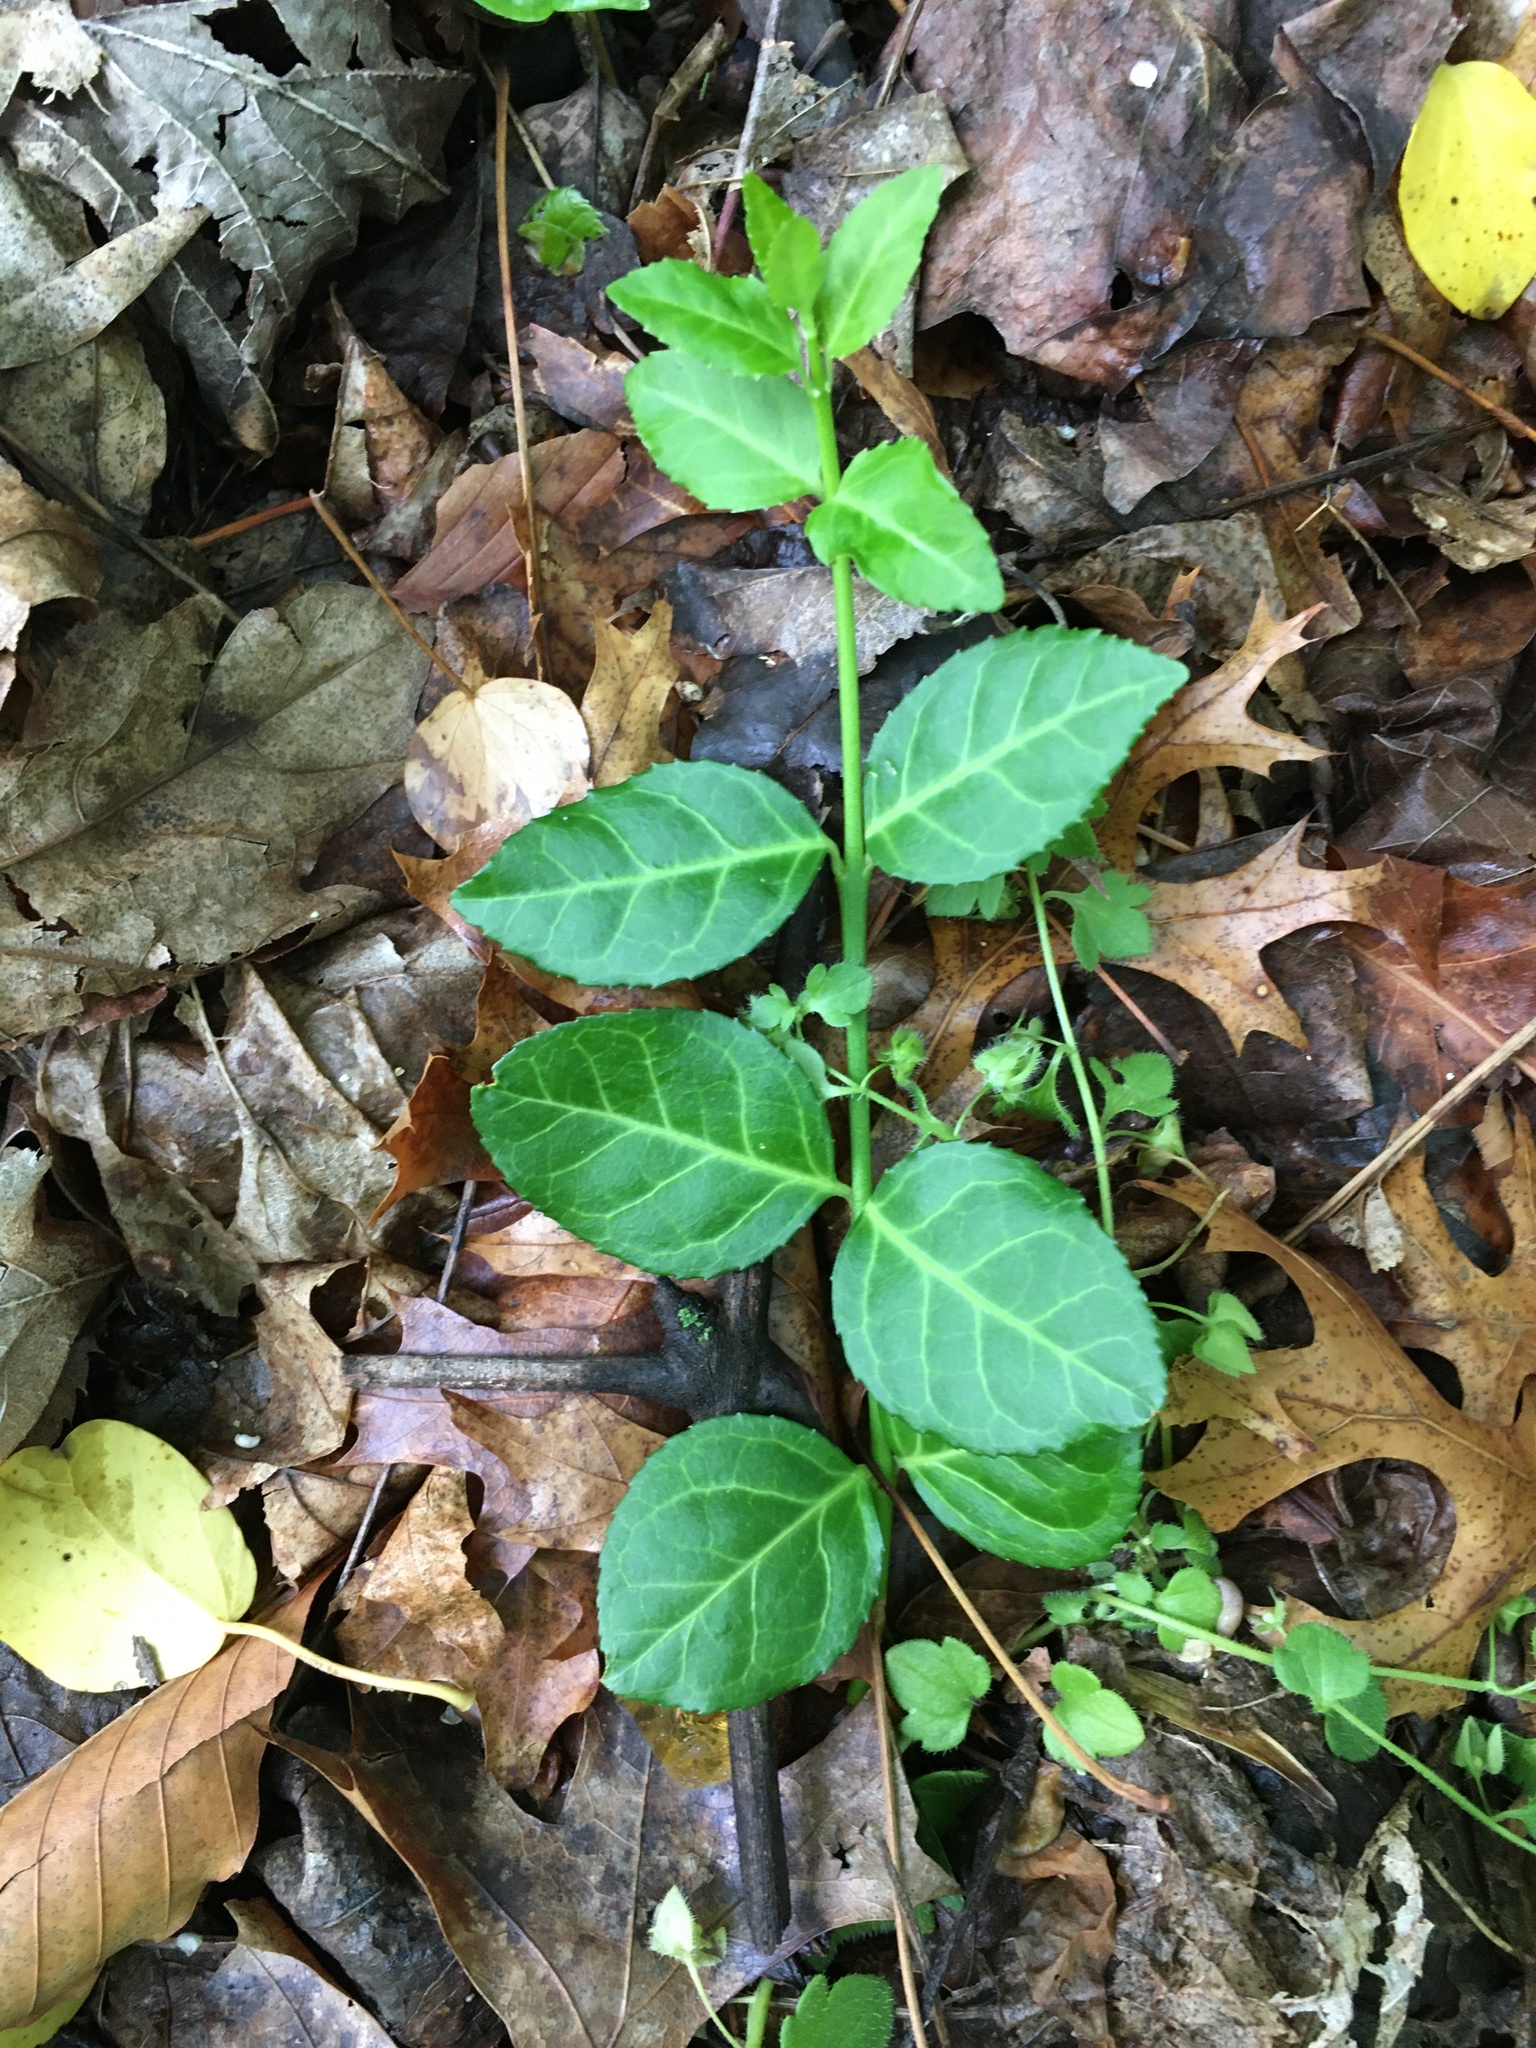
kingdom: Plantae
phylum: Tracheophyta
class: Magnoliopsida
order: Celastrales
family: Celastraceae
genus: Euonymus
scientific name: Euonymus fortunei
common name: Climbing euonymus
